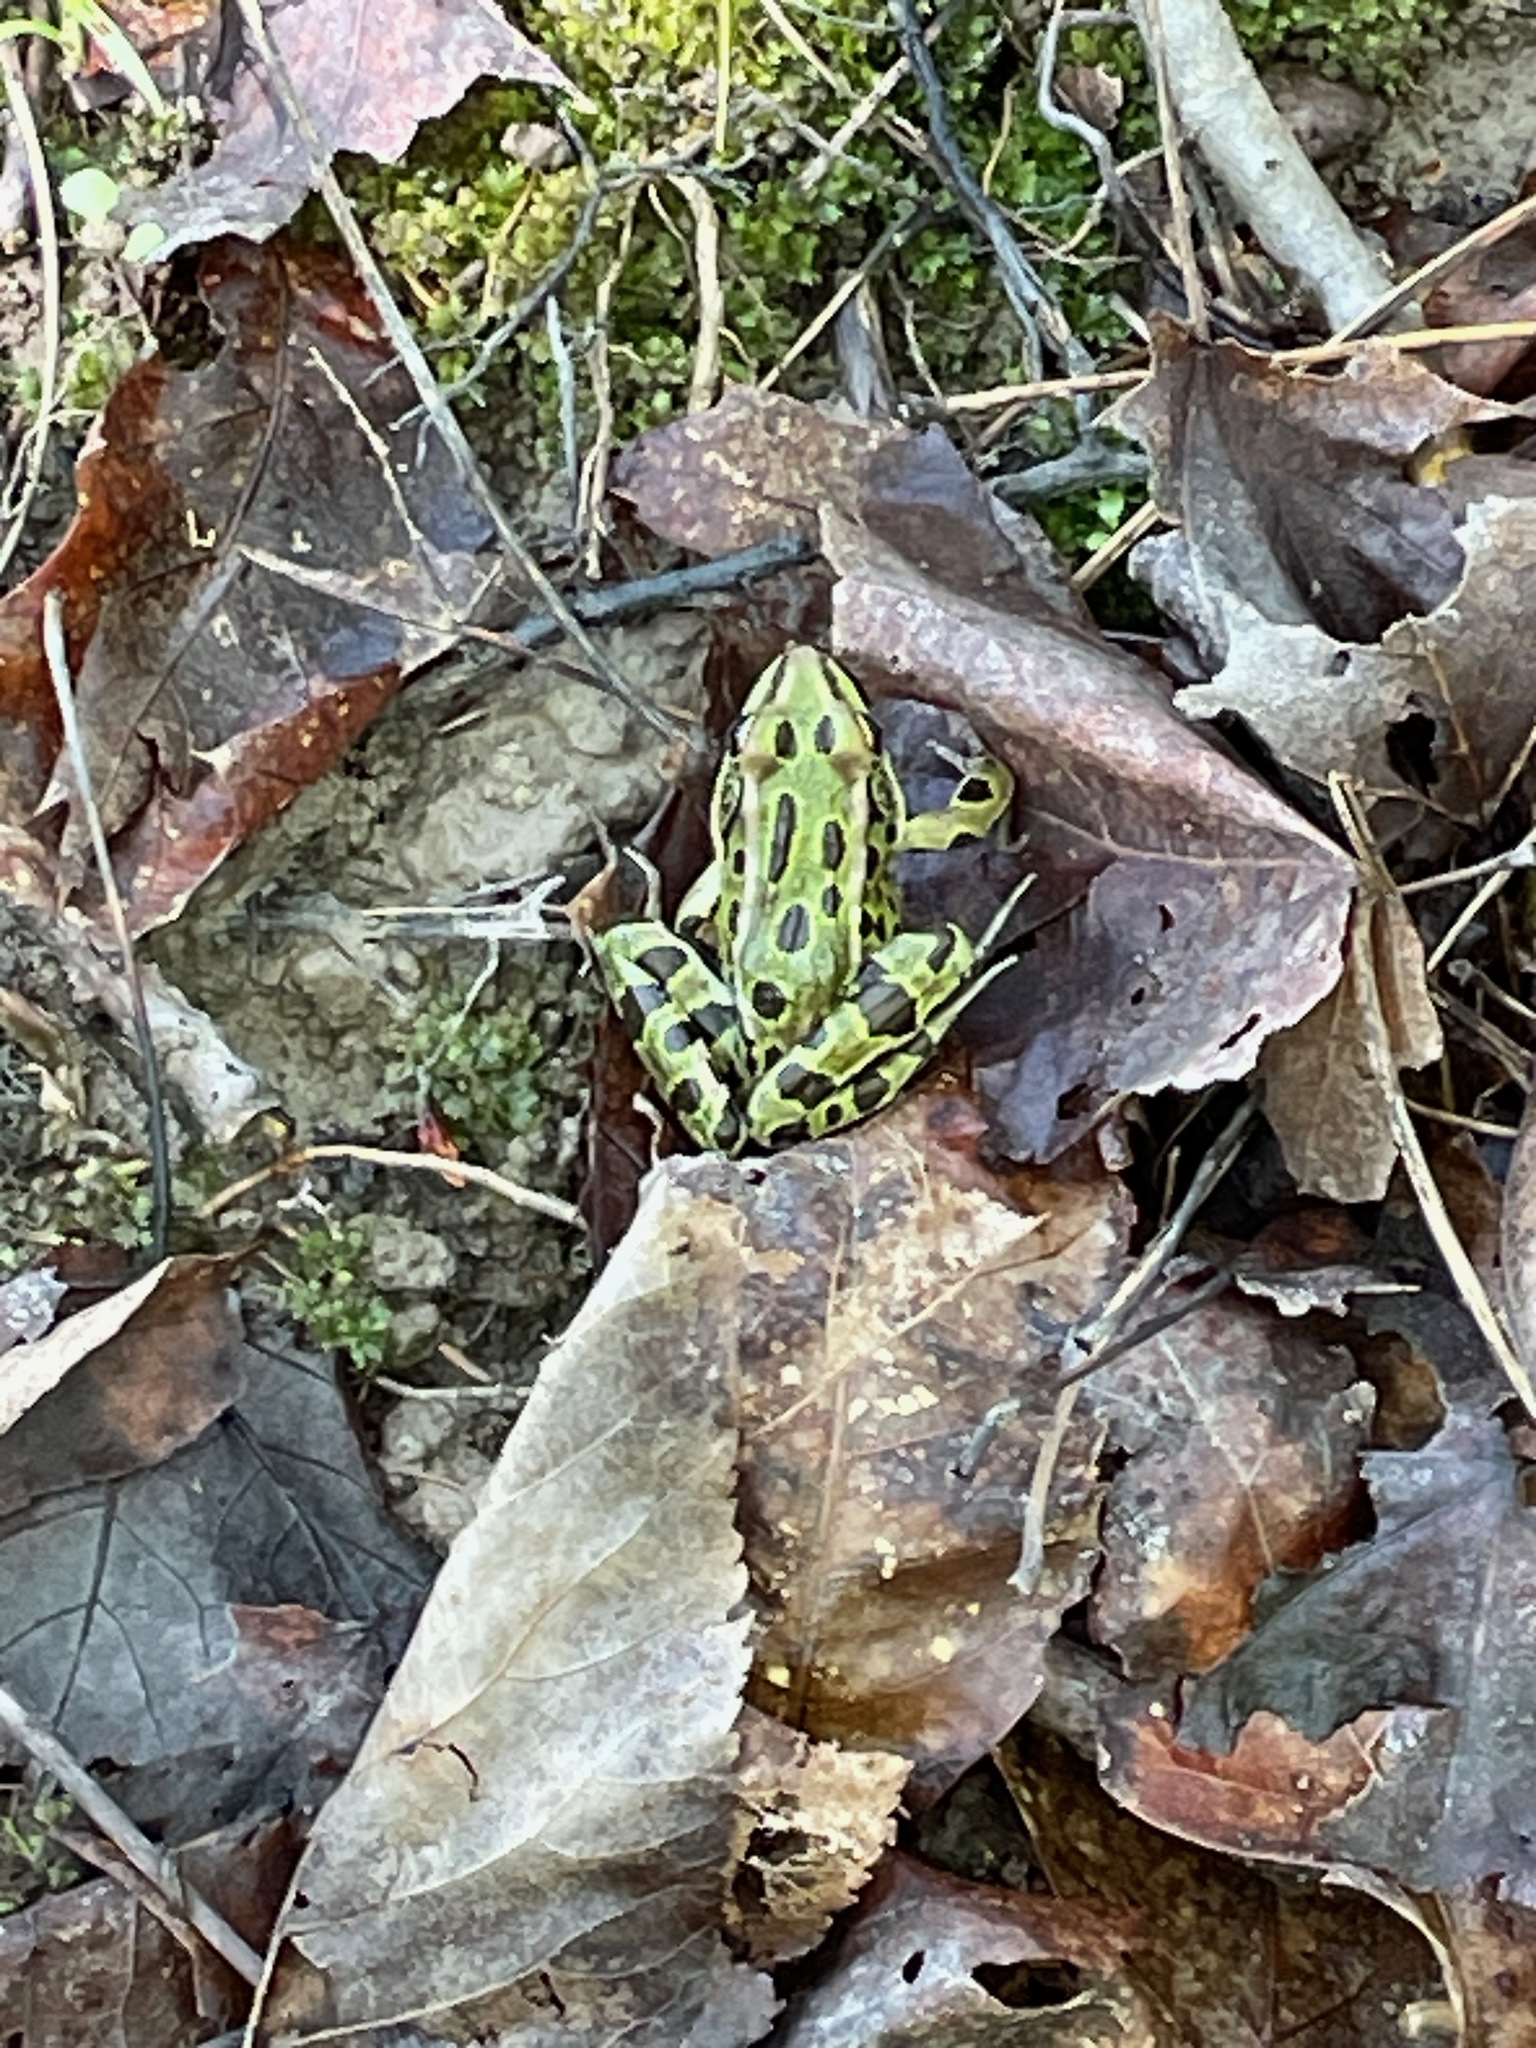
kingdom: Animalia
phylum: Chordata
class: Amphibia
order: Anura
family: Ranidae
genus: Lithobates
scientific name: Lithobates pipiens
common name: Northern leopard frog
